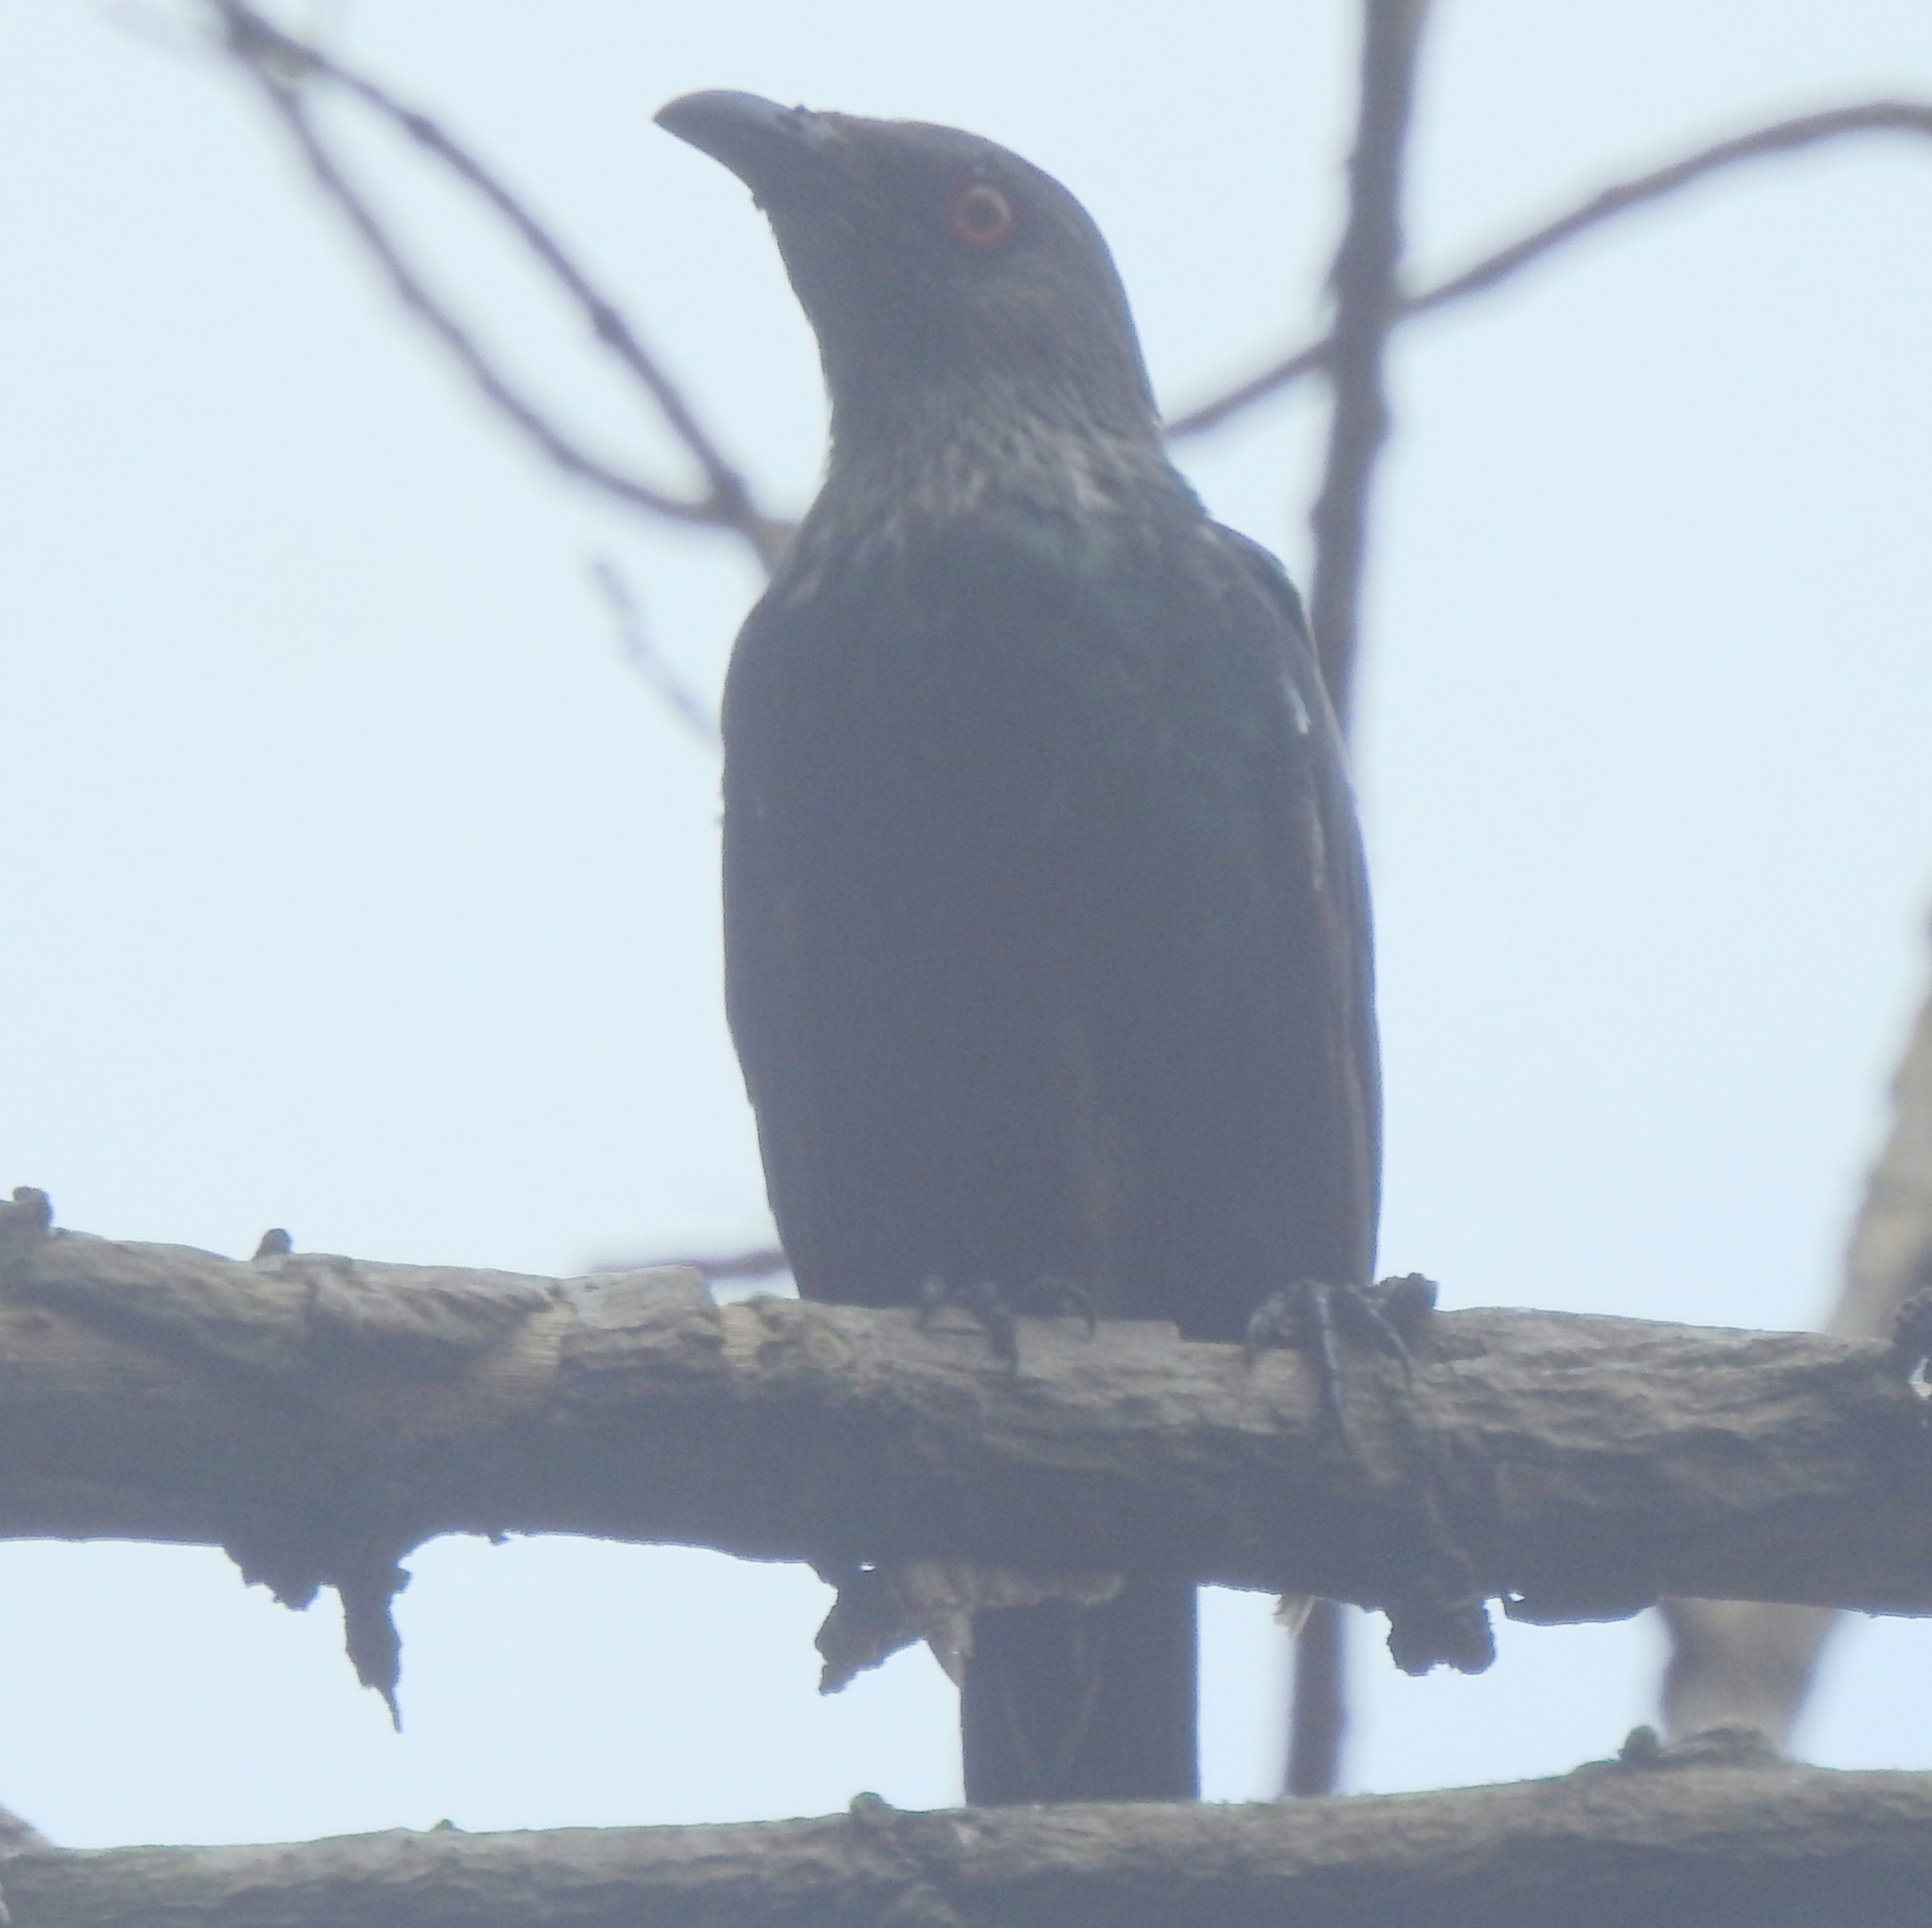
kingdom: Animalia
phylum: Chordata
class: Aves
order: Passeriformes
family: Sturnidae
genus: Aplonis
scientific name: Aplonis panayensis
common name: Asian glossy starling
